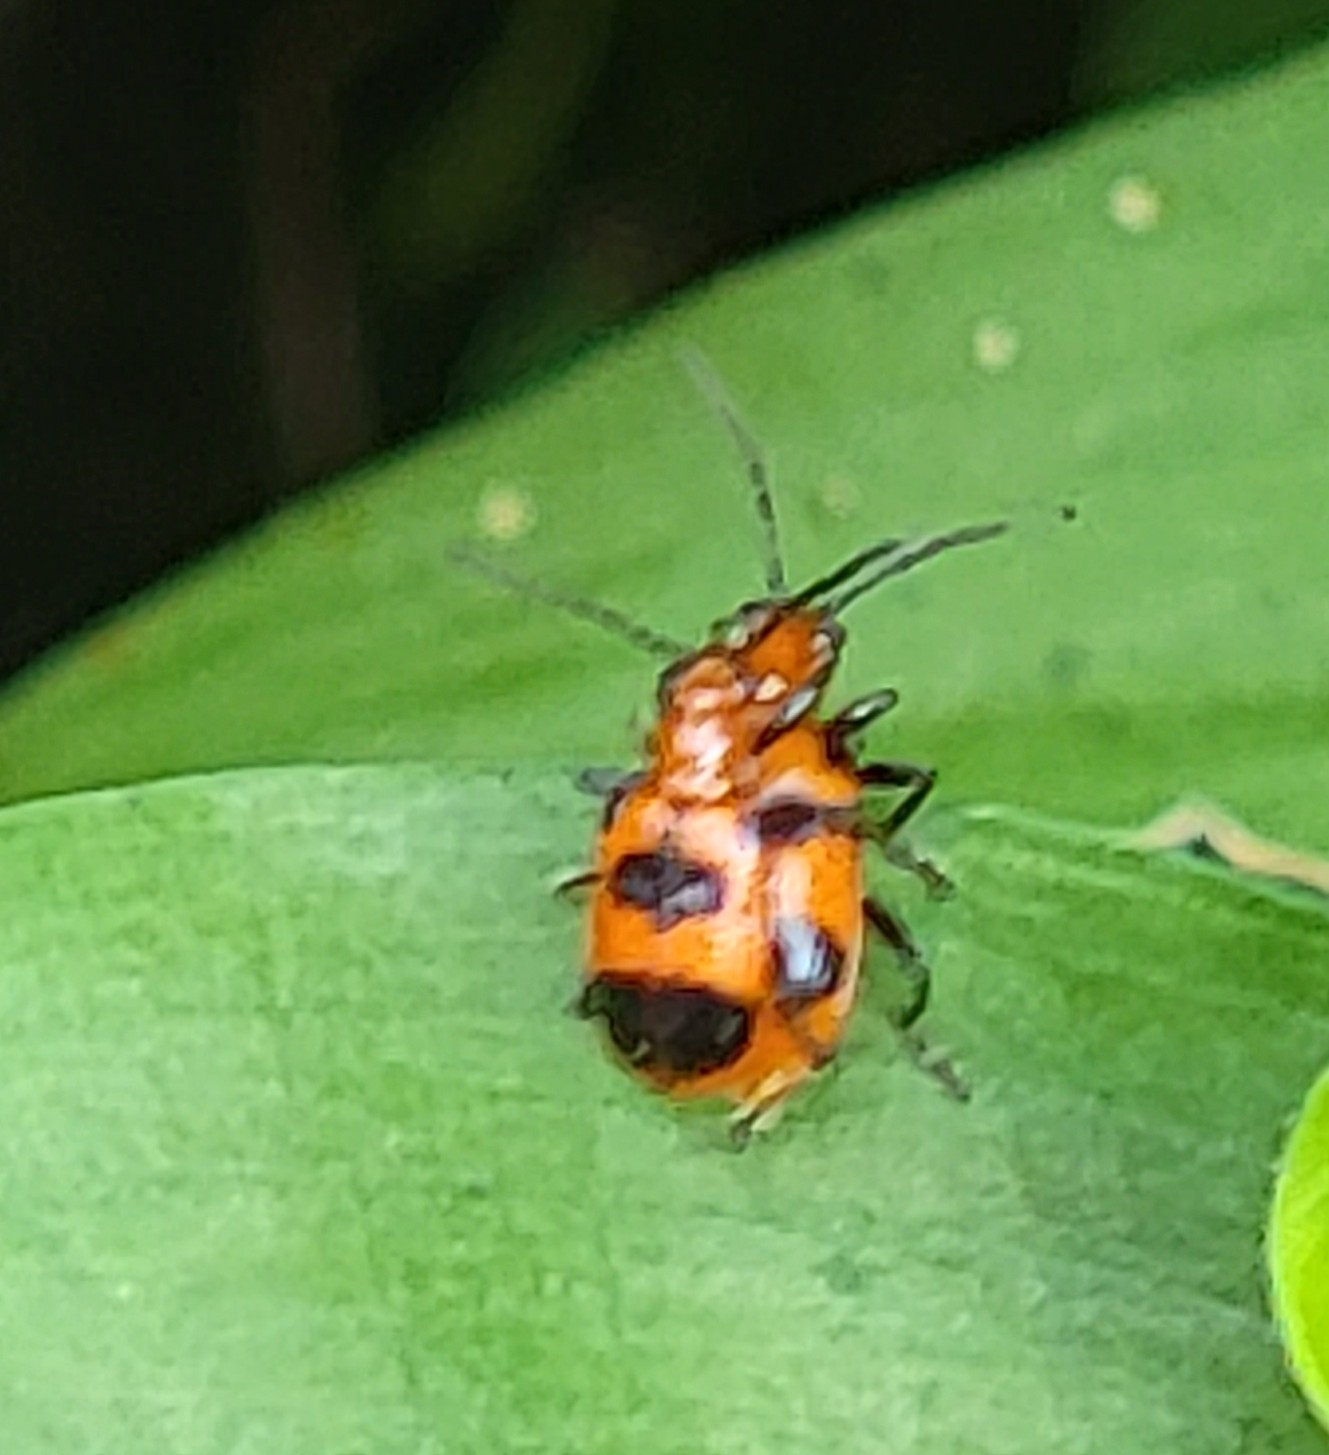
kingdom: Animalia
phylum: Arthropoda
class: Insecta
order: Coleoptera
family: Chrysomelidae
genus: Neolema
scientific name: Neolema sexpunctata
